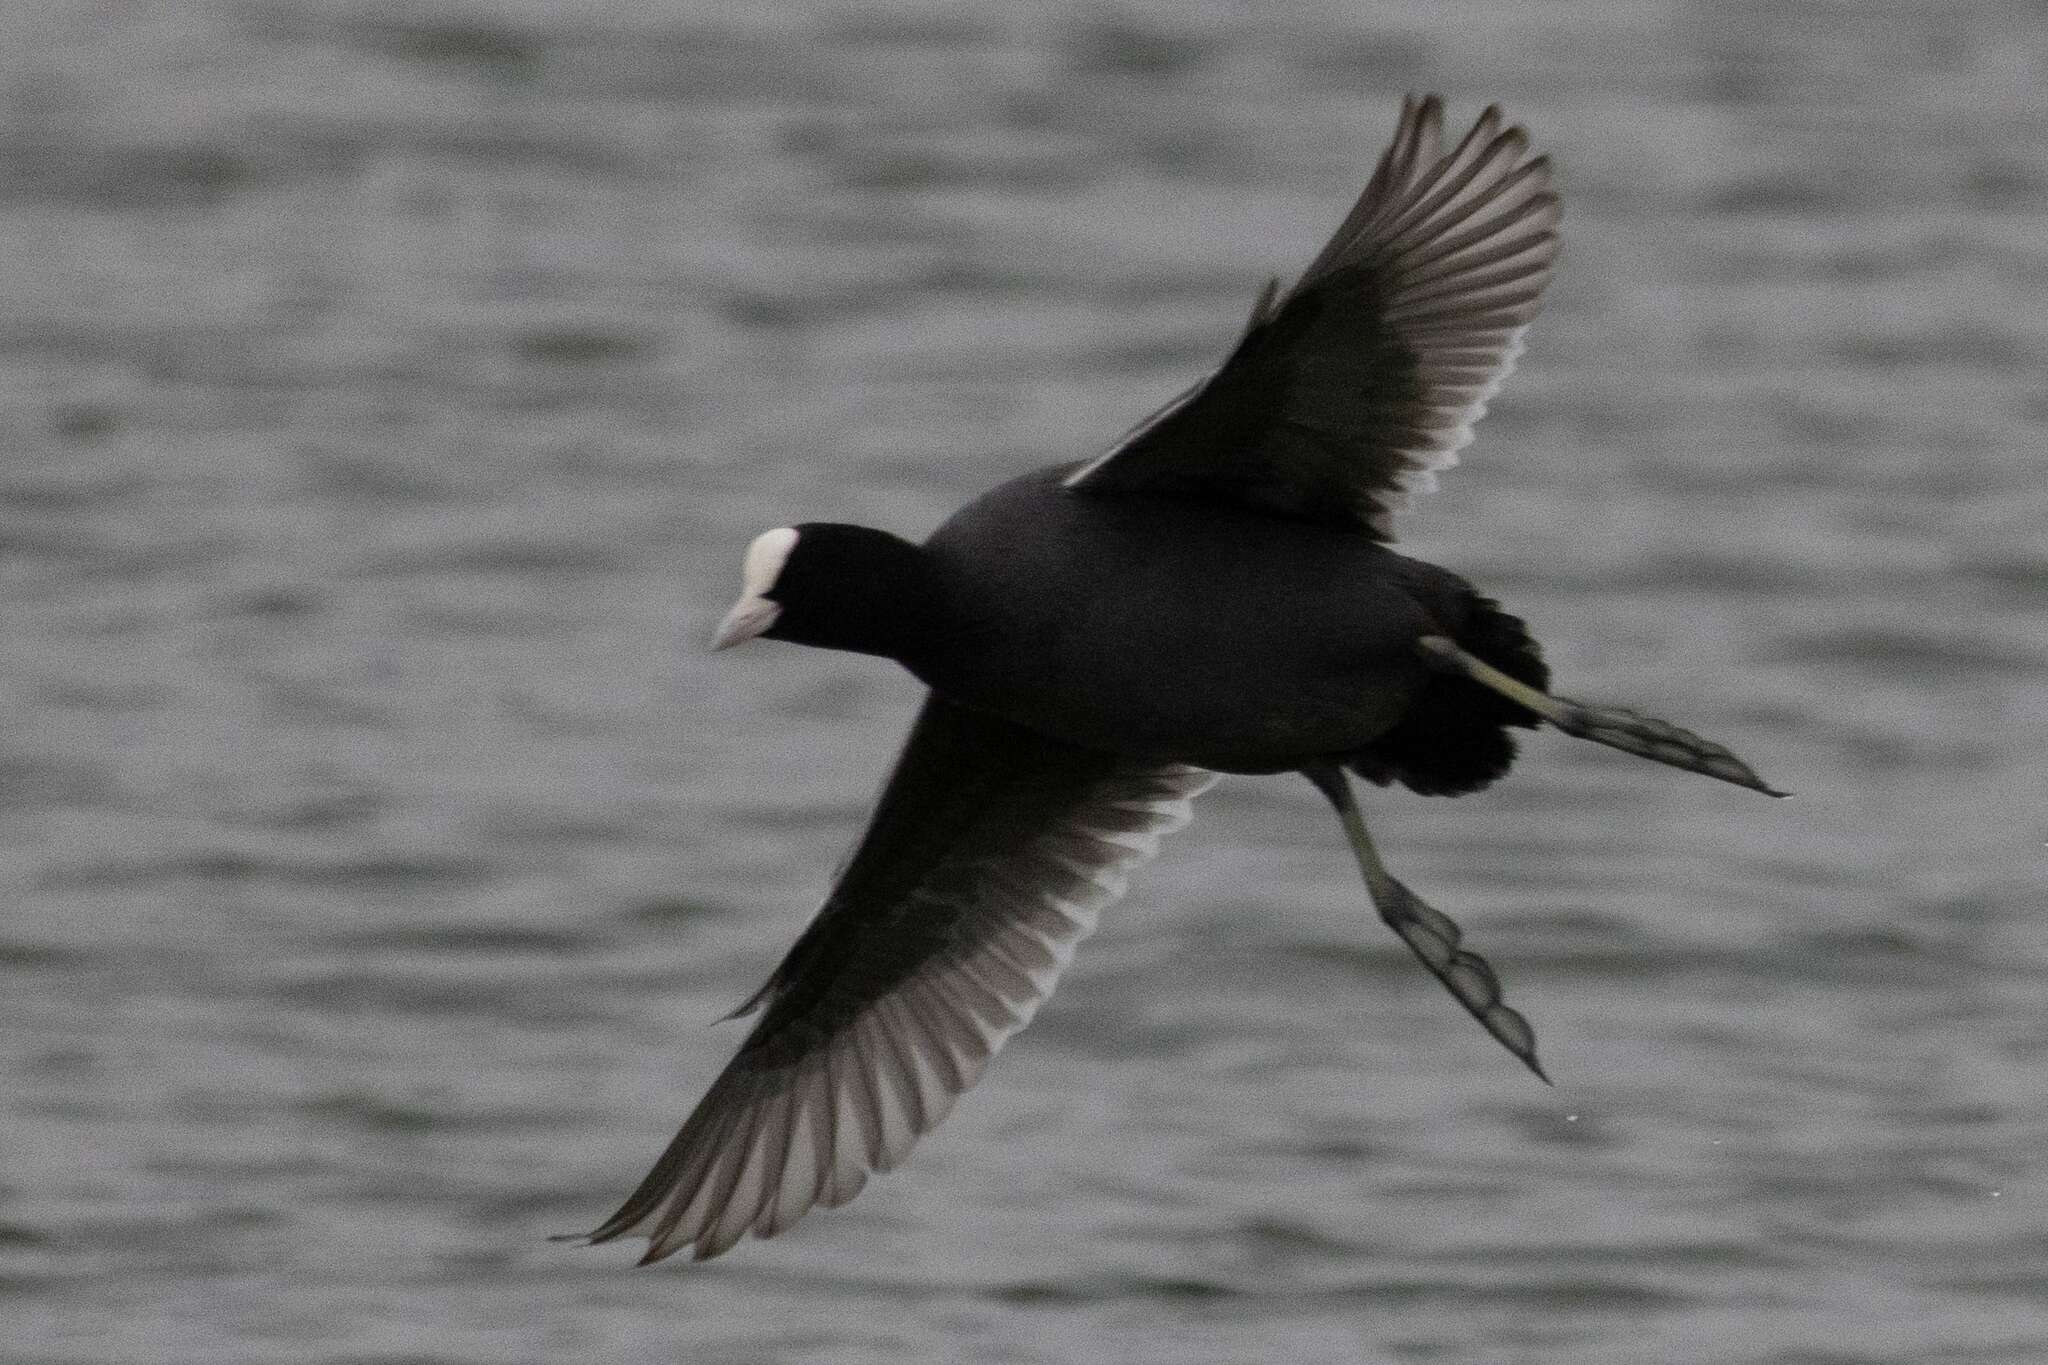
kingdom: Animalia
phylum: Chordata
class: Aves
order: Gruiformes
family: Rallidae
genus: Fulica
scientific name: Fulica atra
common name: Eurasian coot
